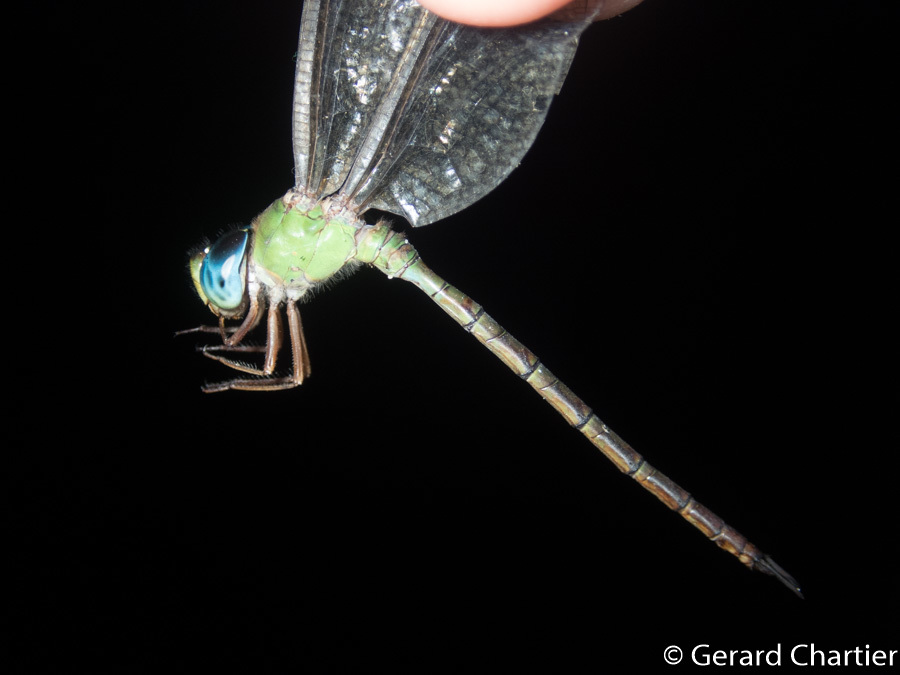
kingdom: Animalia
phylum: Arthropoda
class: Insecta
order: Odonata
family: Aeshnidae
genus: Gynacantha
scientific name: Gynacantha bayadera
